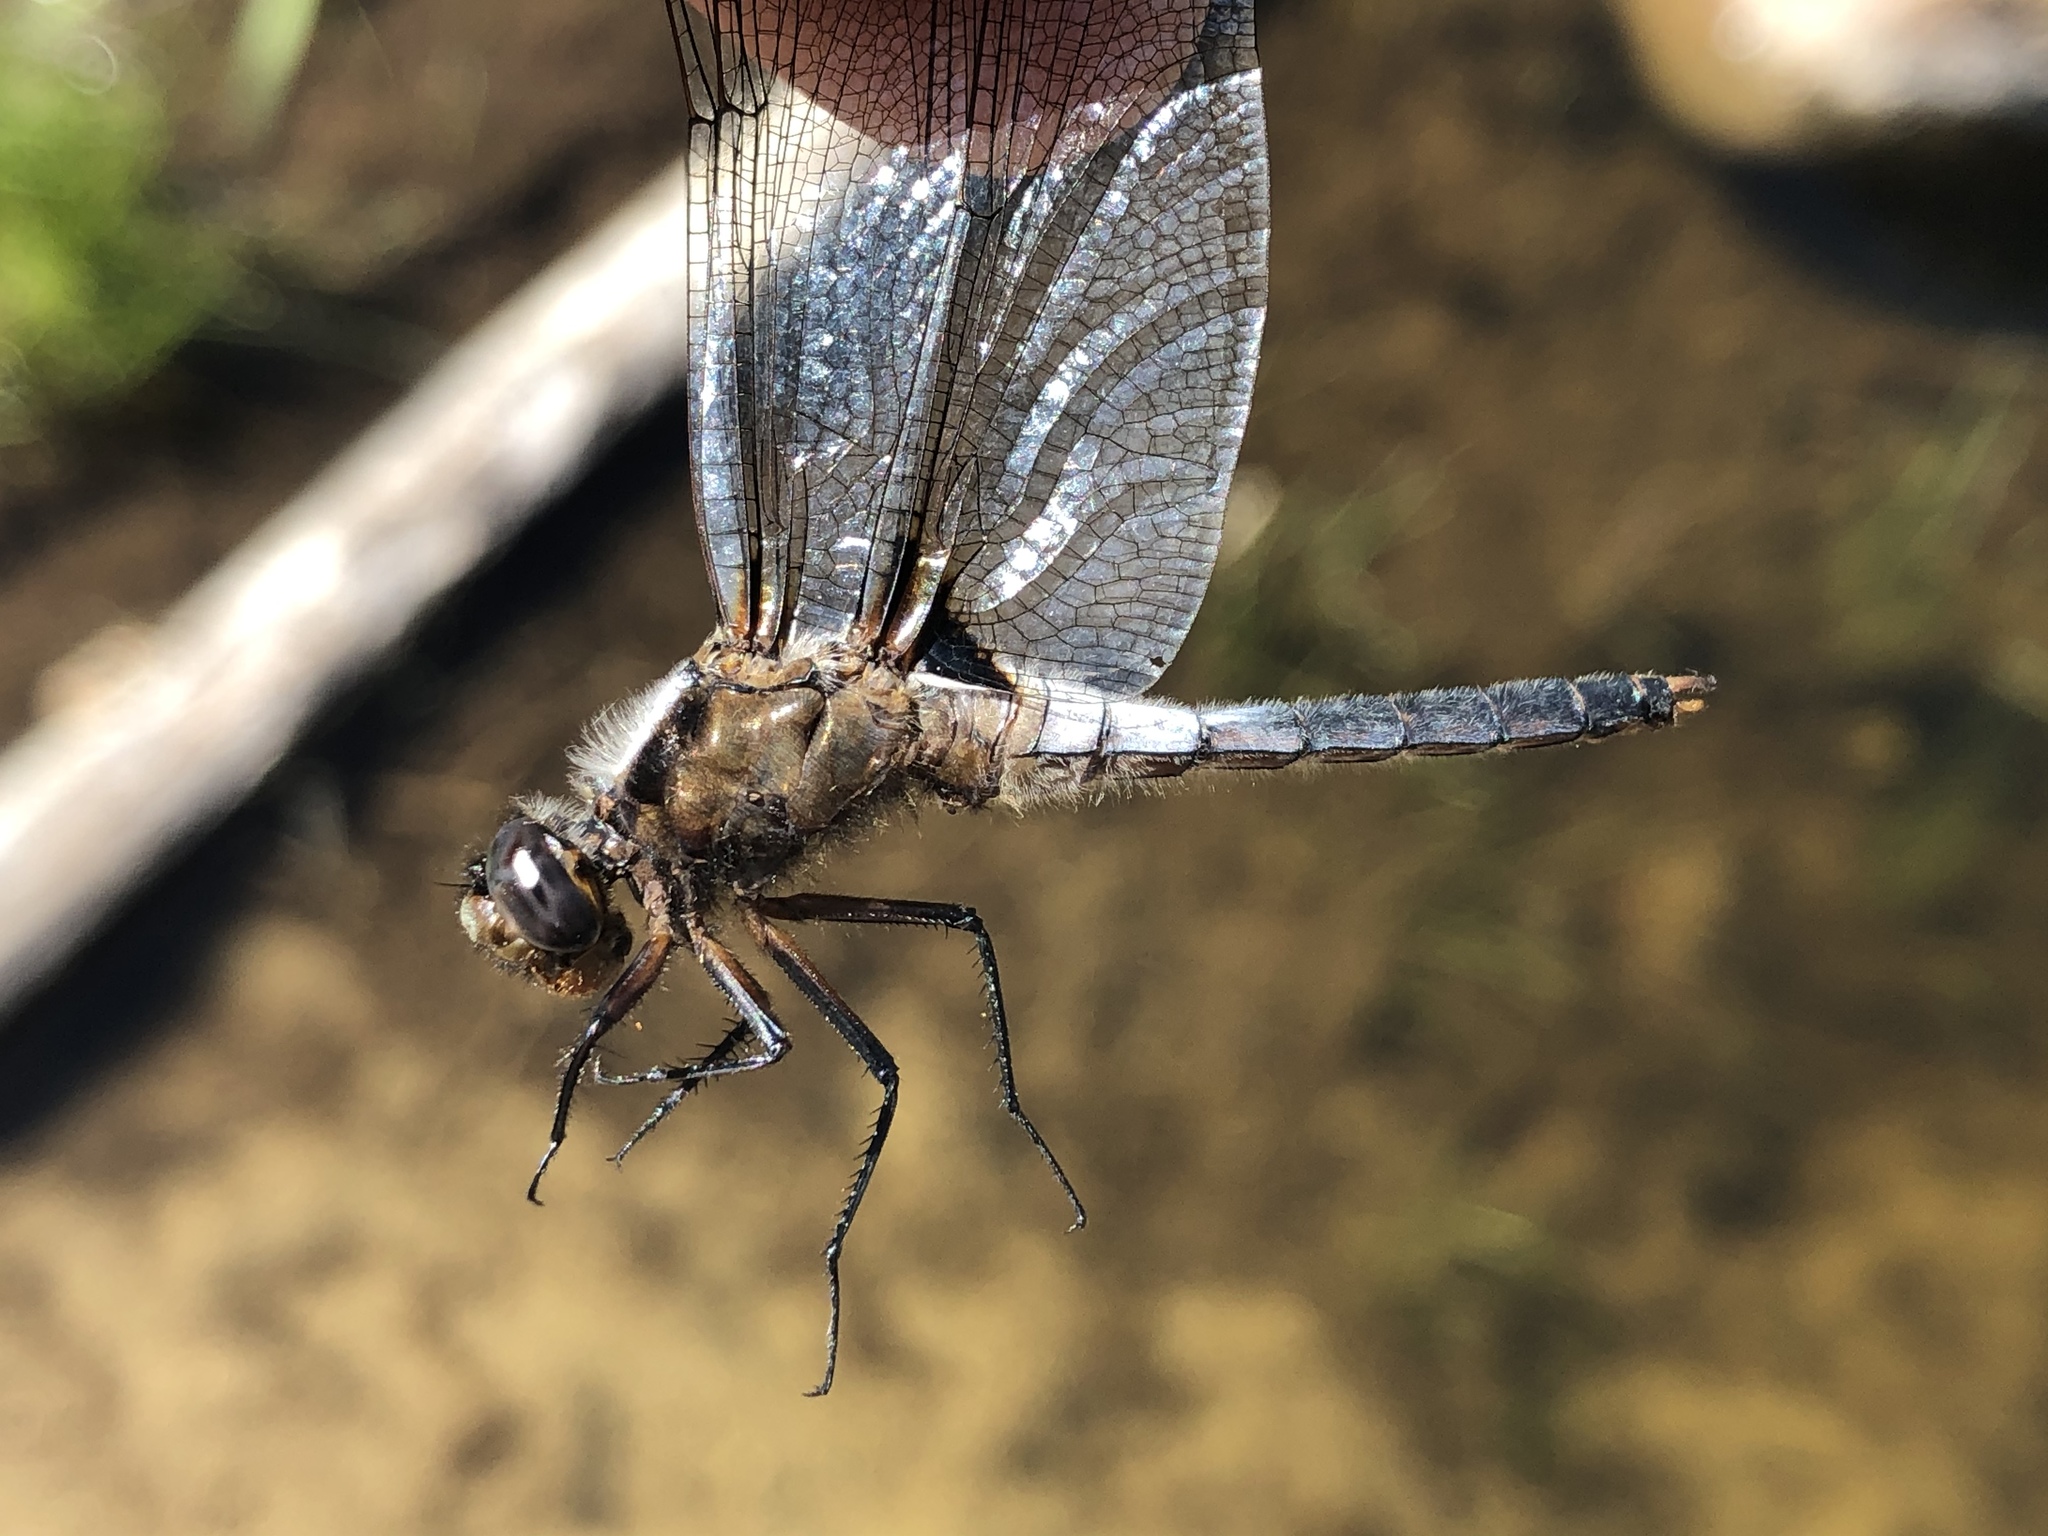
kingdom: Animalia
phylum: Arthropoda
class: Insecta
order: Odonata
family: Libellulidae
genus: Ladona
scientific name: Ladona julia
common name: Chalk-fronted corporal
